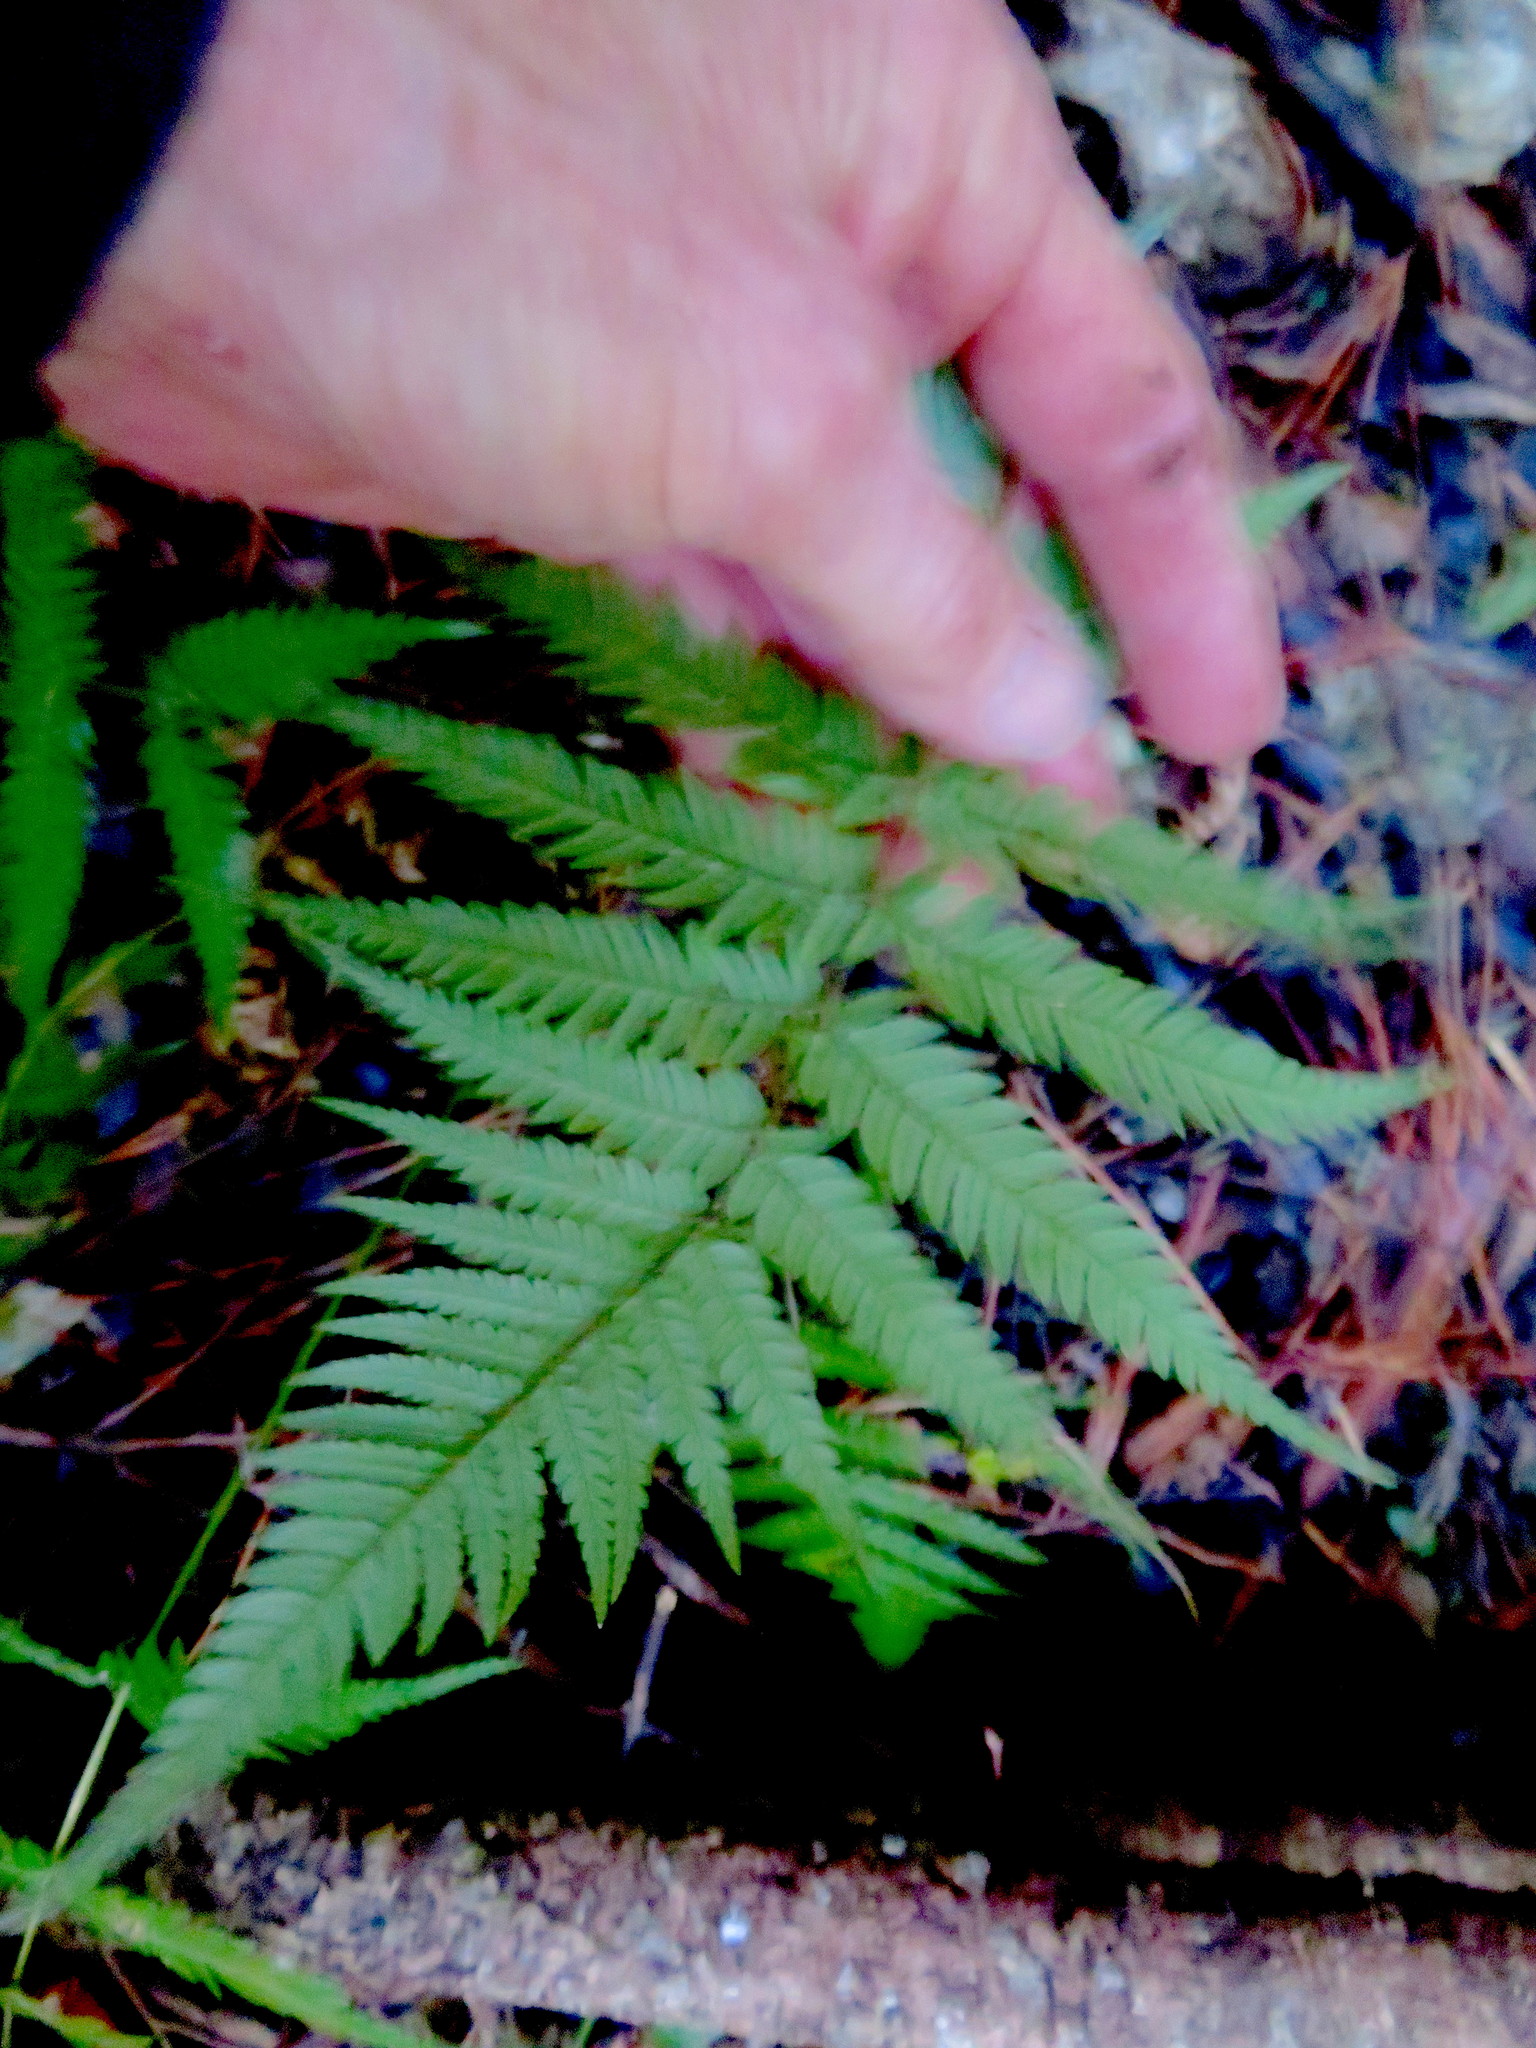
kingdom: Plantae
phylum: Tracheophyta
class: Polypodiopsida
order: Cyatheales
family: Cyatheaceae
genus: Alsophila
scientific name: Alsophila dealbata
